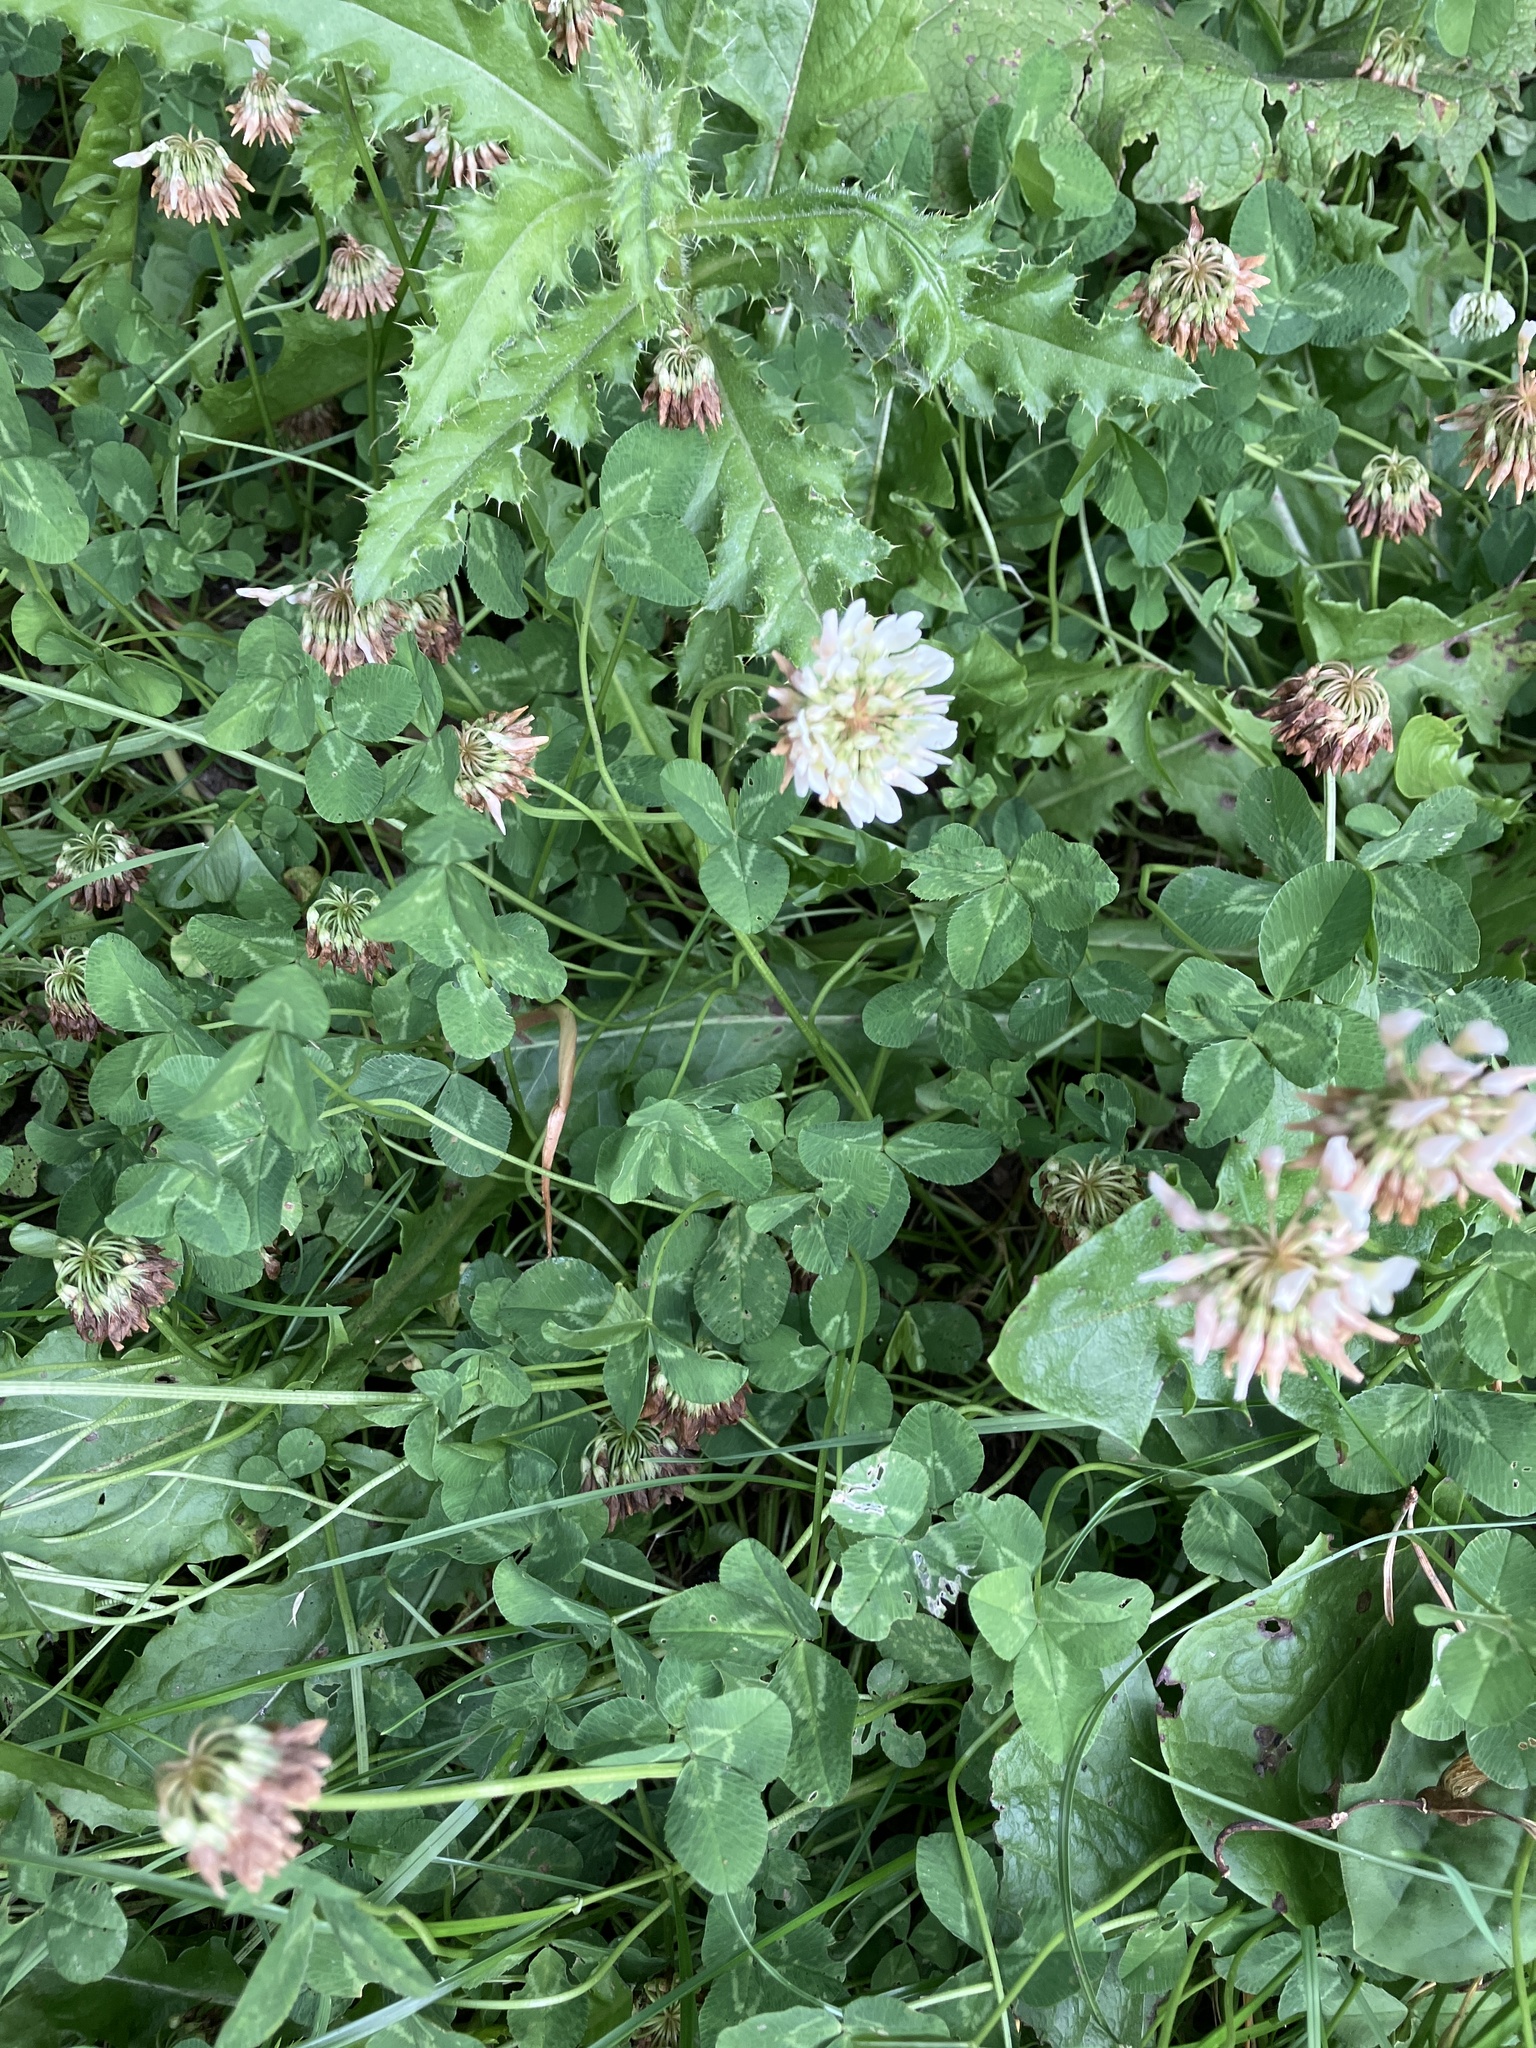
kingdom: Plantae
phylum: Tracheophyta
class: Magnoliopsida
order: Fabales
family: Fabaceae
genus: Trifolium
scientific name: Trifolium repens
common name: White clover
